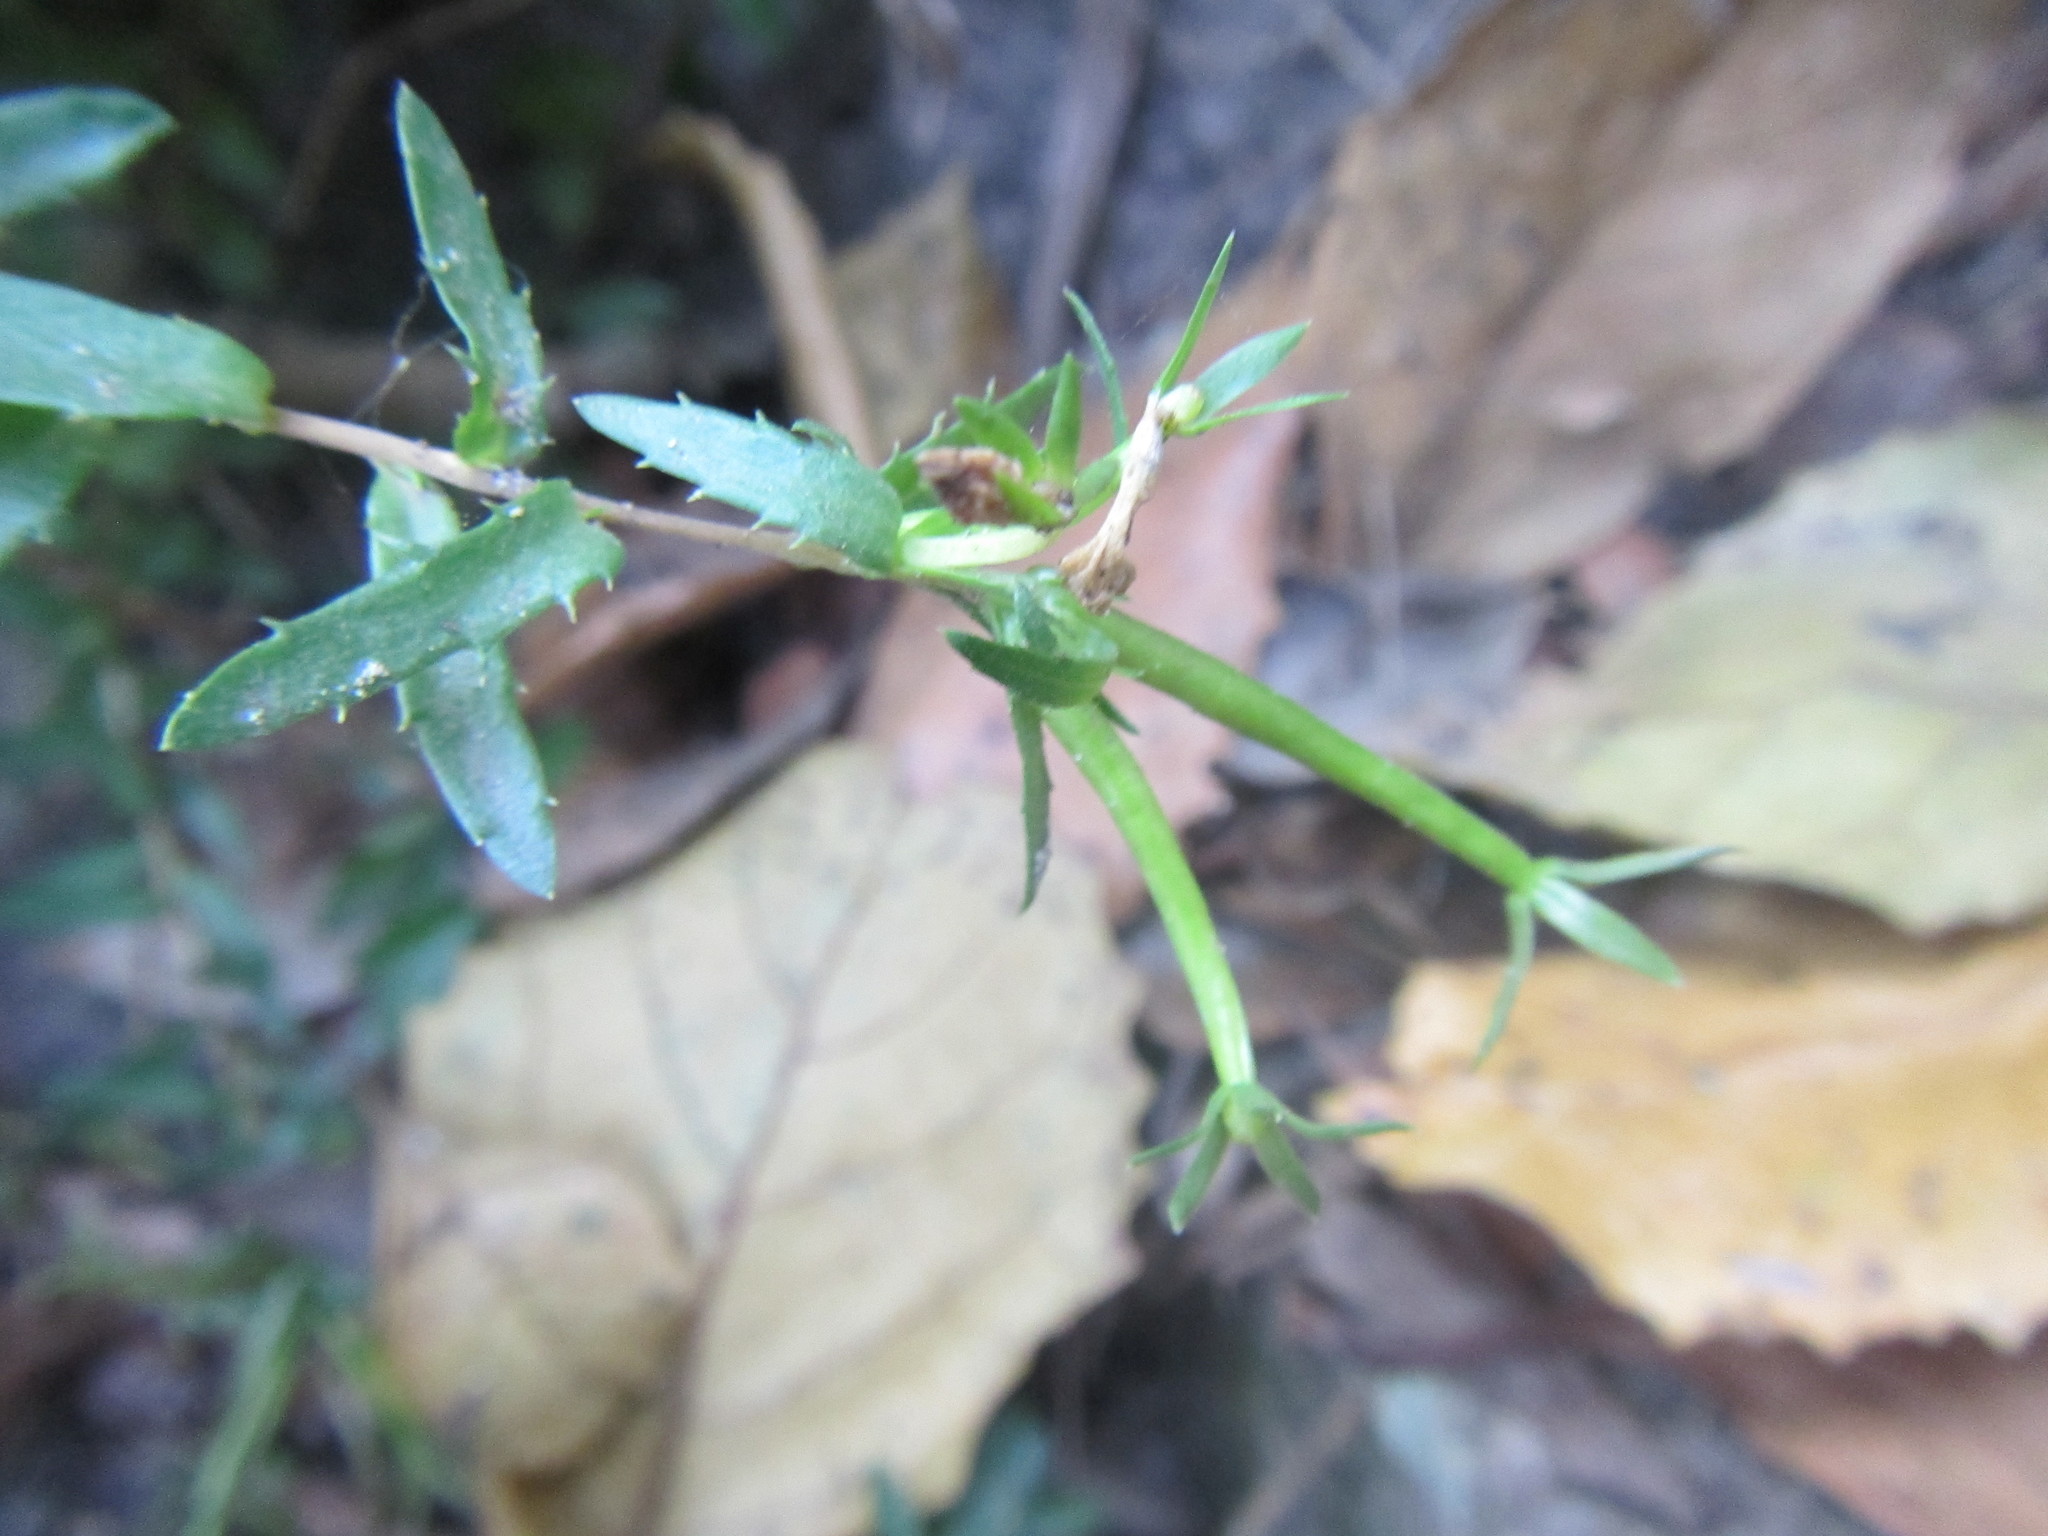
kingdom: Plantae
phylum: Tracheophyta
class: Magnoliopsida
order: Asterales
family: Campanulaceae
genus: Prismatocarpus
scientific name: Prismatocarpus nitidus
